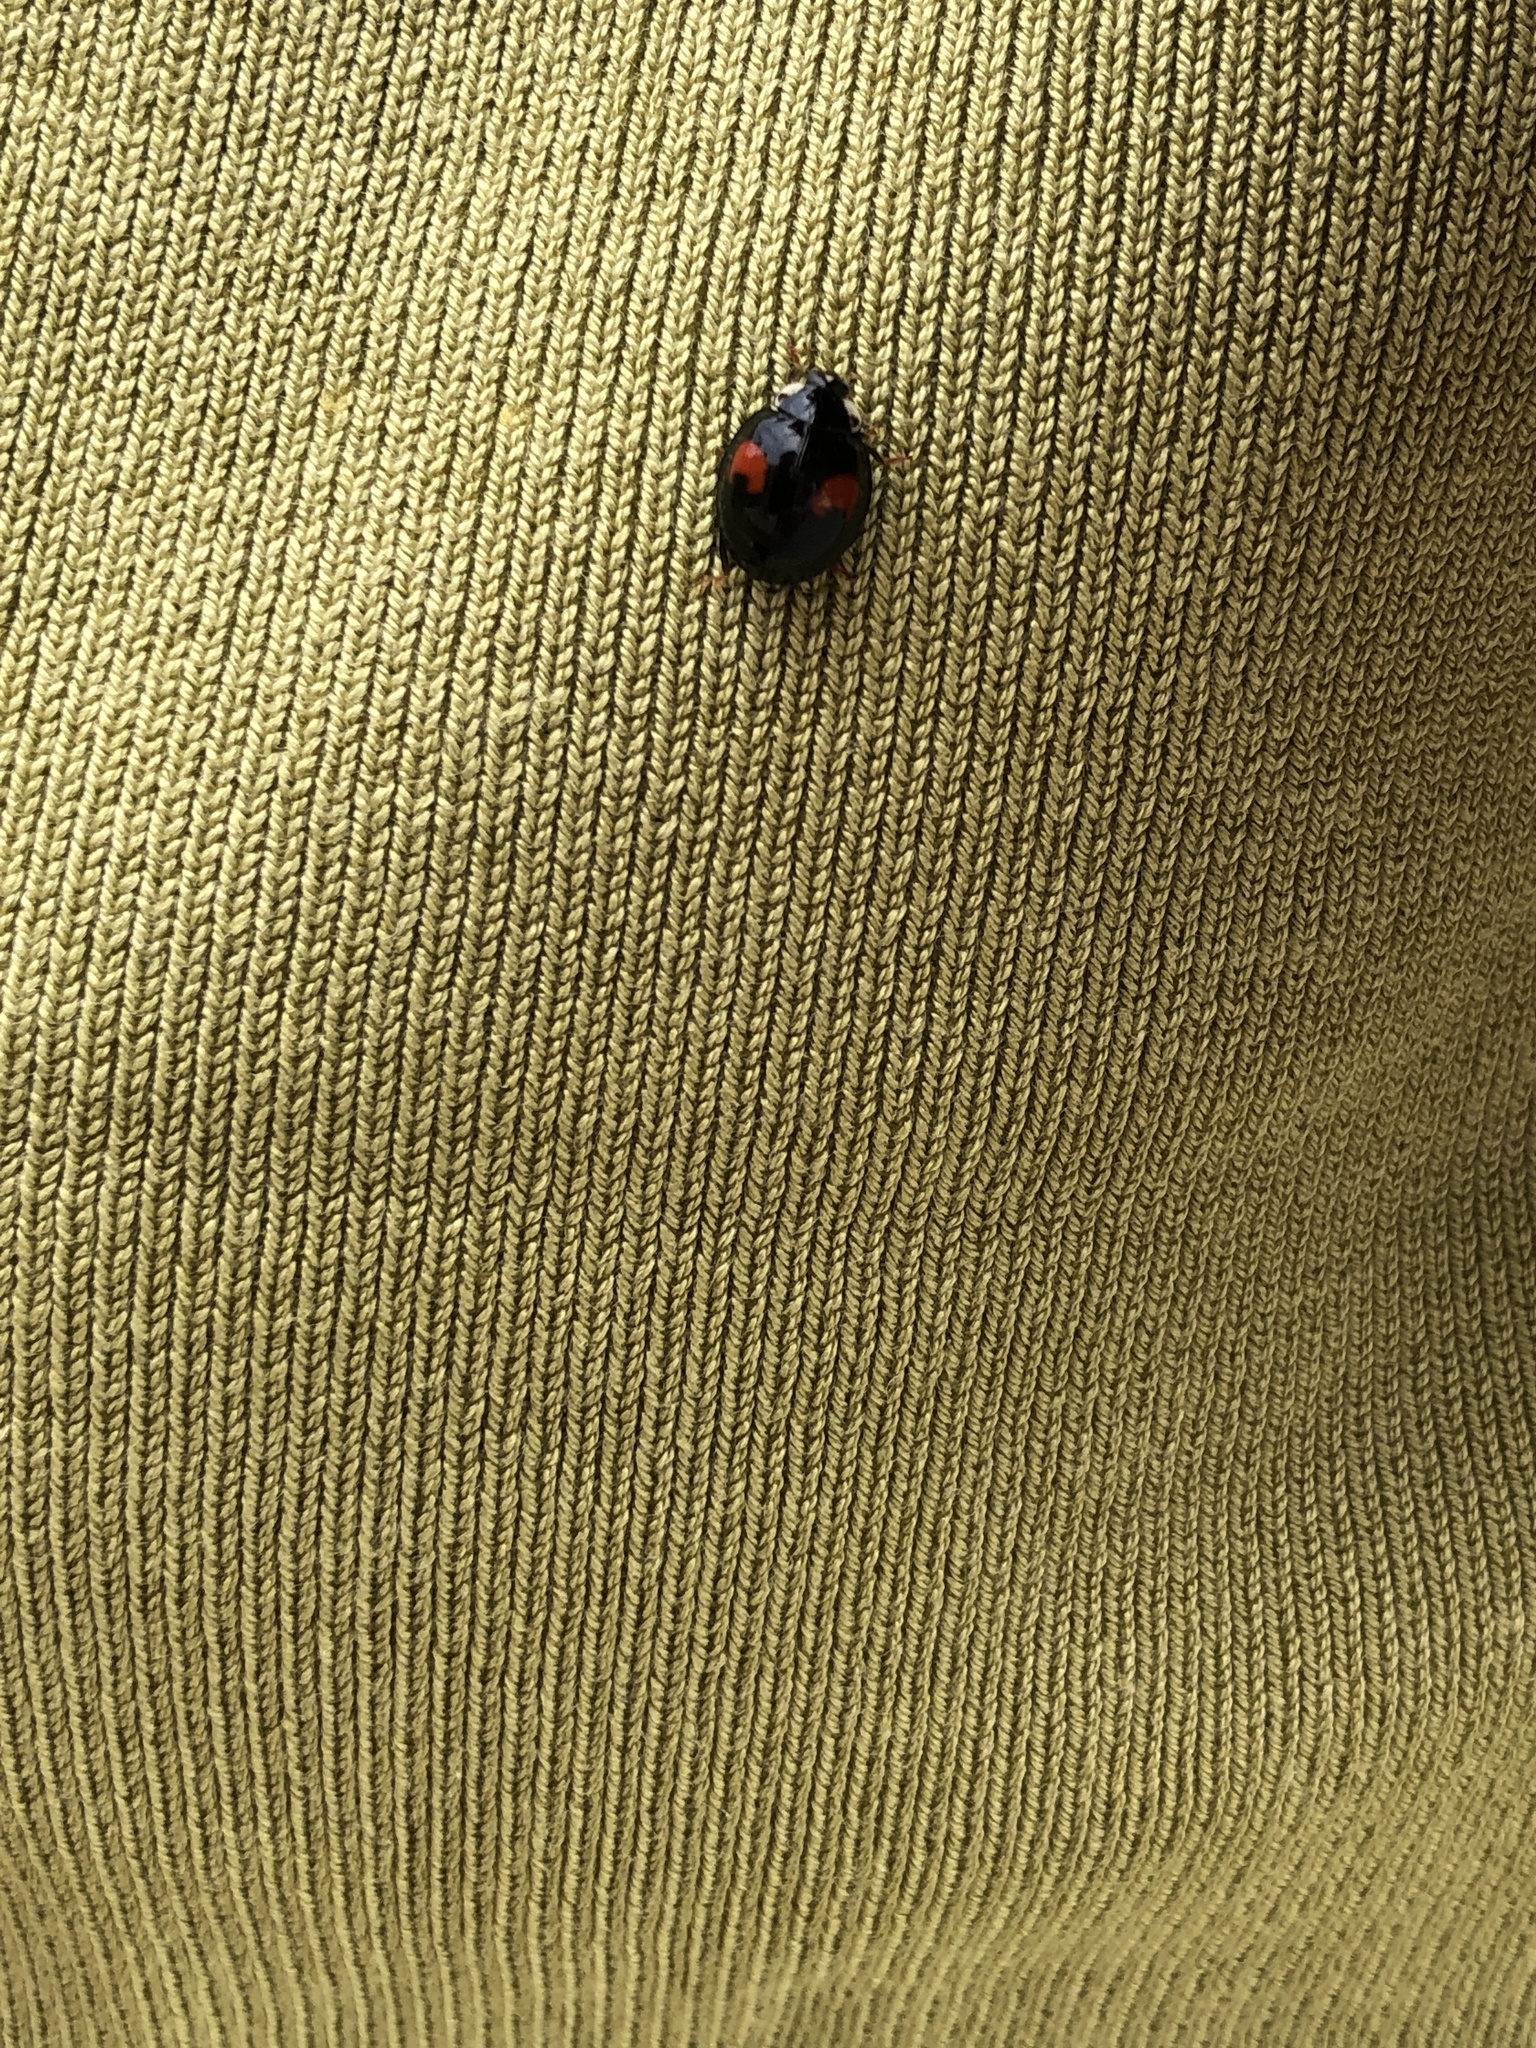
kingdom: Animalia
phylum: Arthropoda
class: Insecta
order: Coleoptera
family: Coccinellidae
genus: Harmonia
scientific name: Harmonia axyridis
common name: Harlequin ladybird
